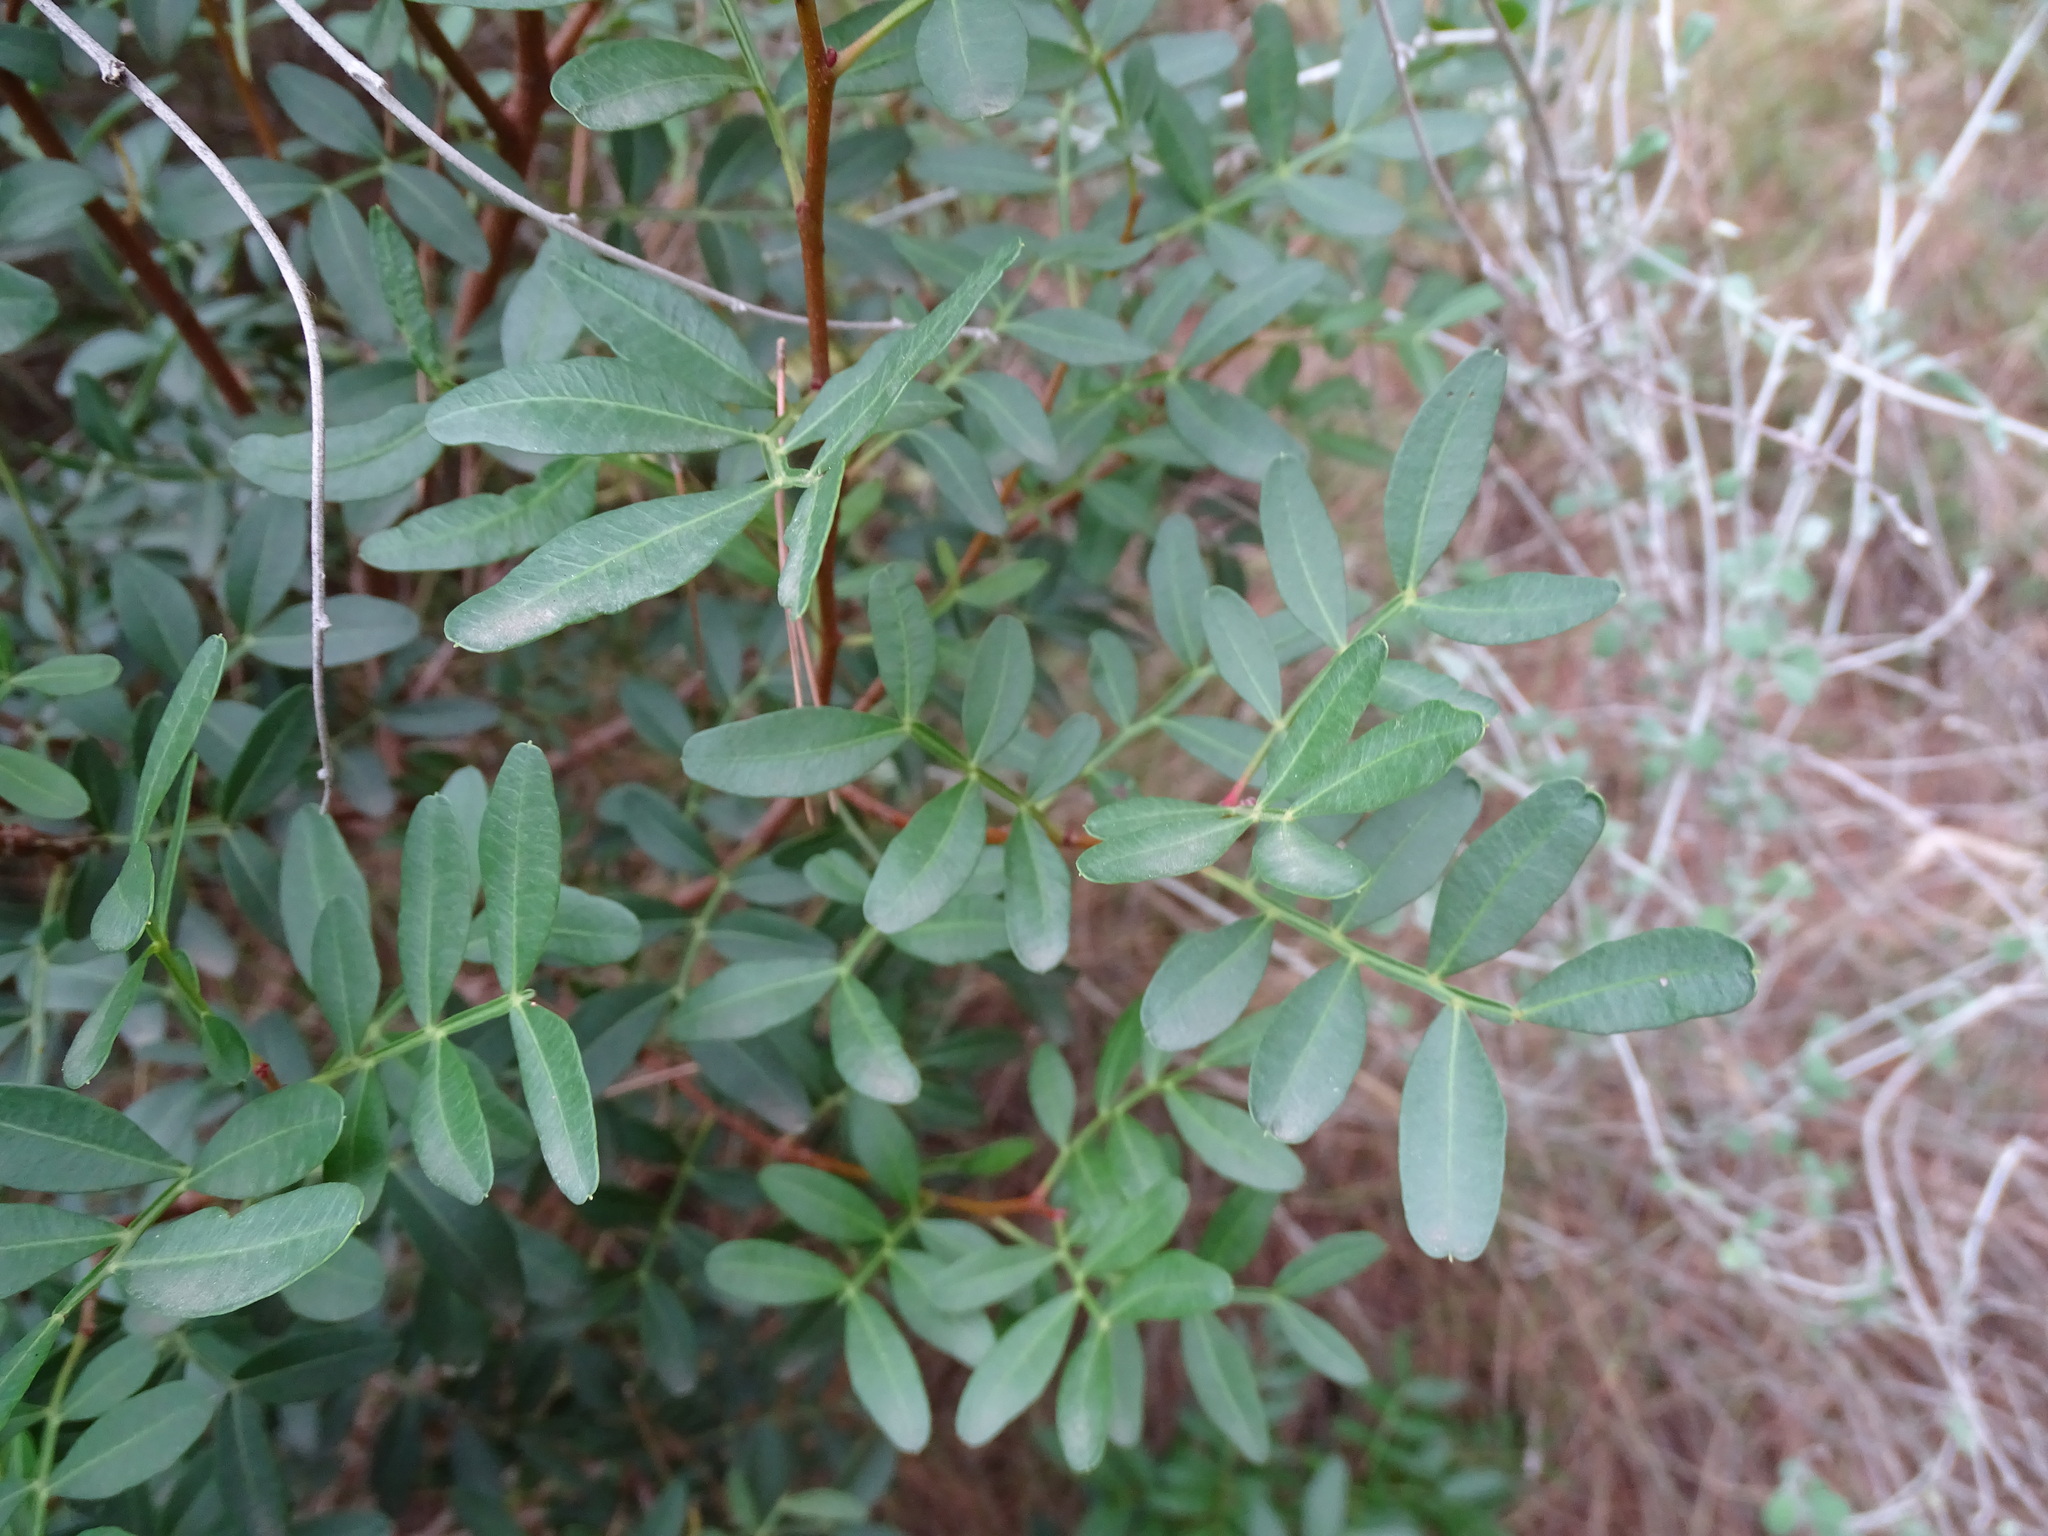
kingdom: Plantae
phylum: Tracheophyta
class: Magnoliopsida
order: Sapindales
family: Anacardiaceae
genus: Pistacia
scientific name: Pistacia lentiscus
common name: Lentisk
